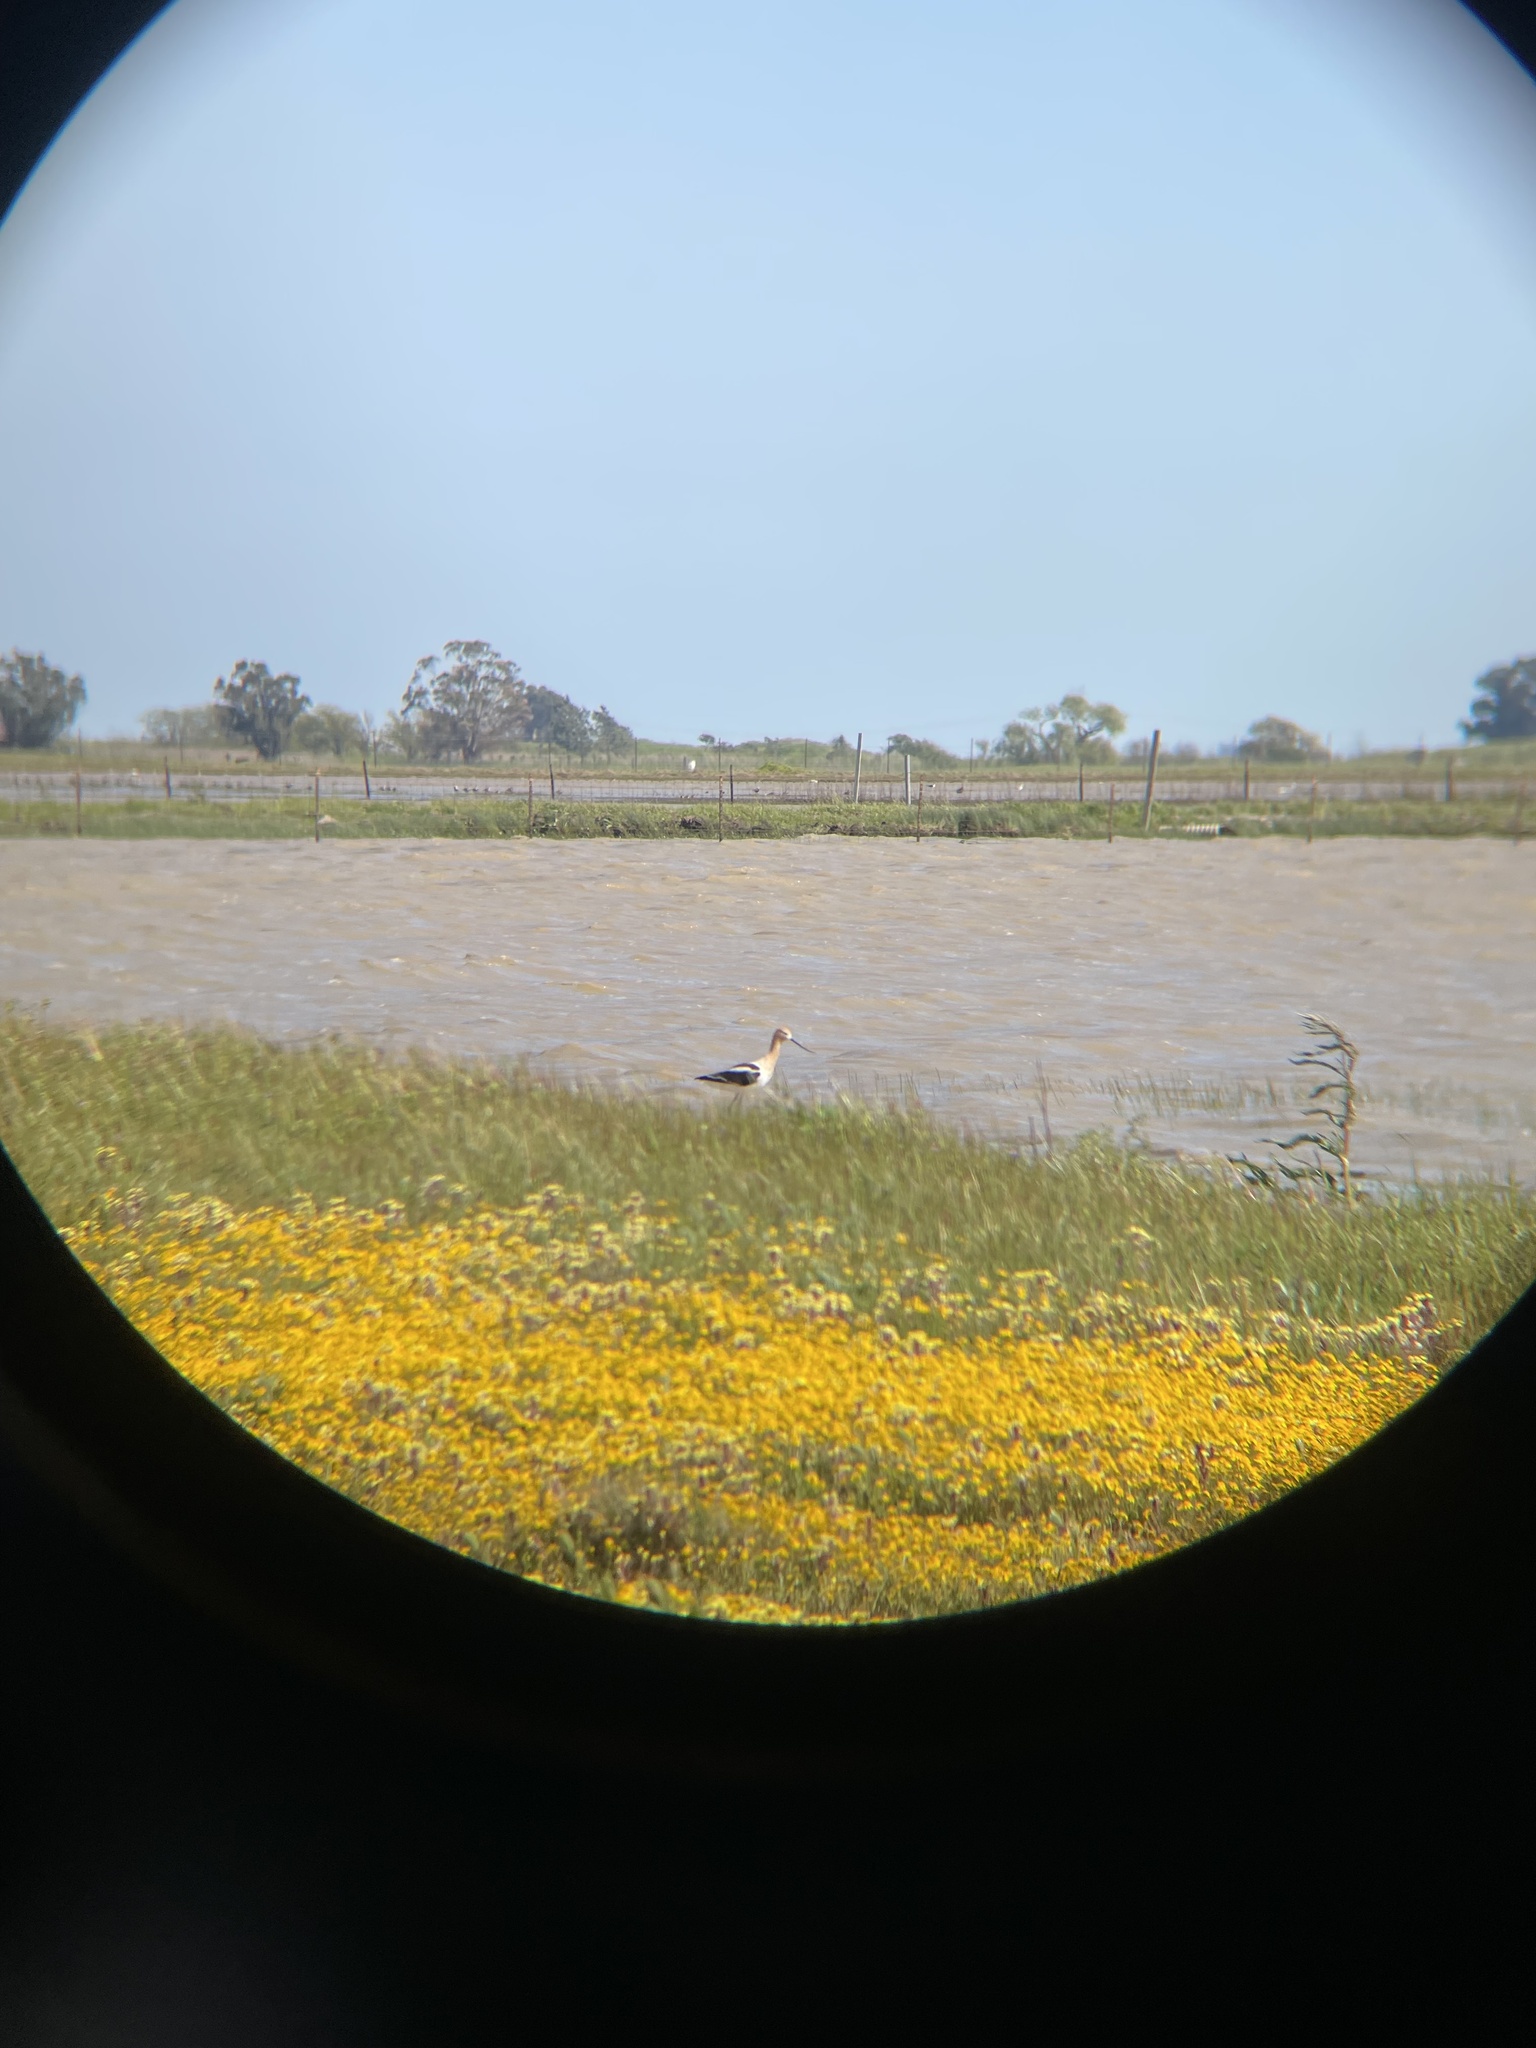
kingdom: Animalia
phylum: Chordata
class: Aves
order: Charadriiformes
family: Recurvirostridae
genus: Himantopus
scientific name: Himantopus mexicanus
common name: Black-necked stilt
